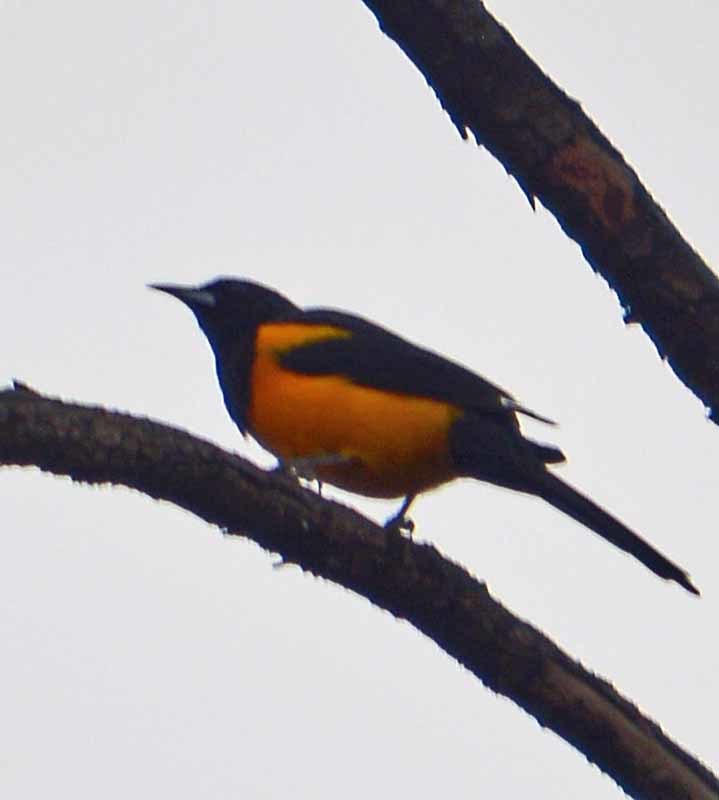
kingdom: Animalia
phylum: Chordata
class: Aves
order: Passeriformes
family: Icteridae
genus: Icterus
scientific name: Icterus wagleri
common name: Black-vented oriole
